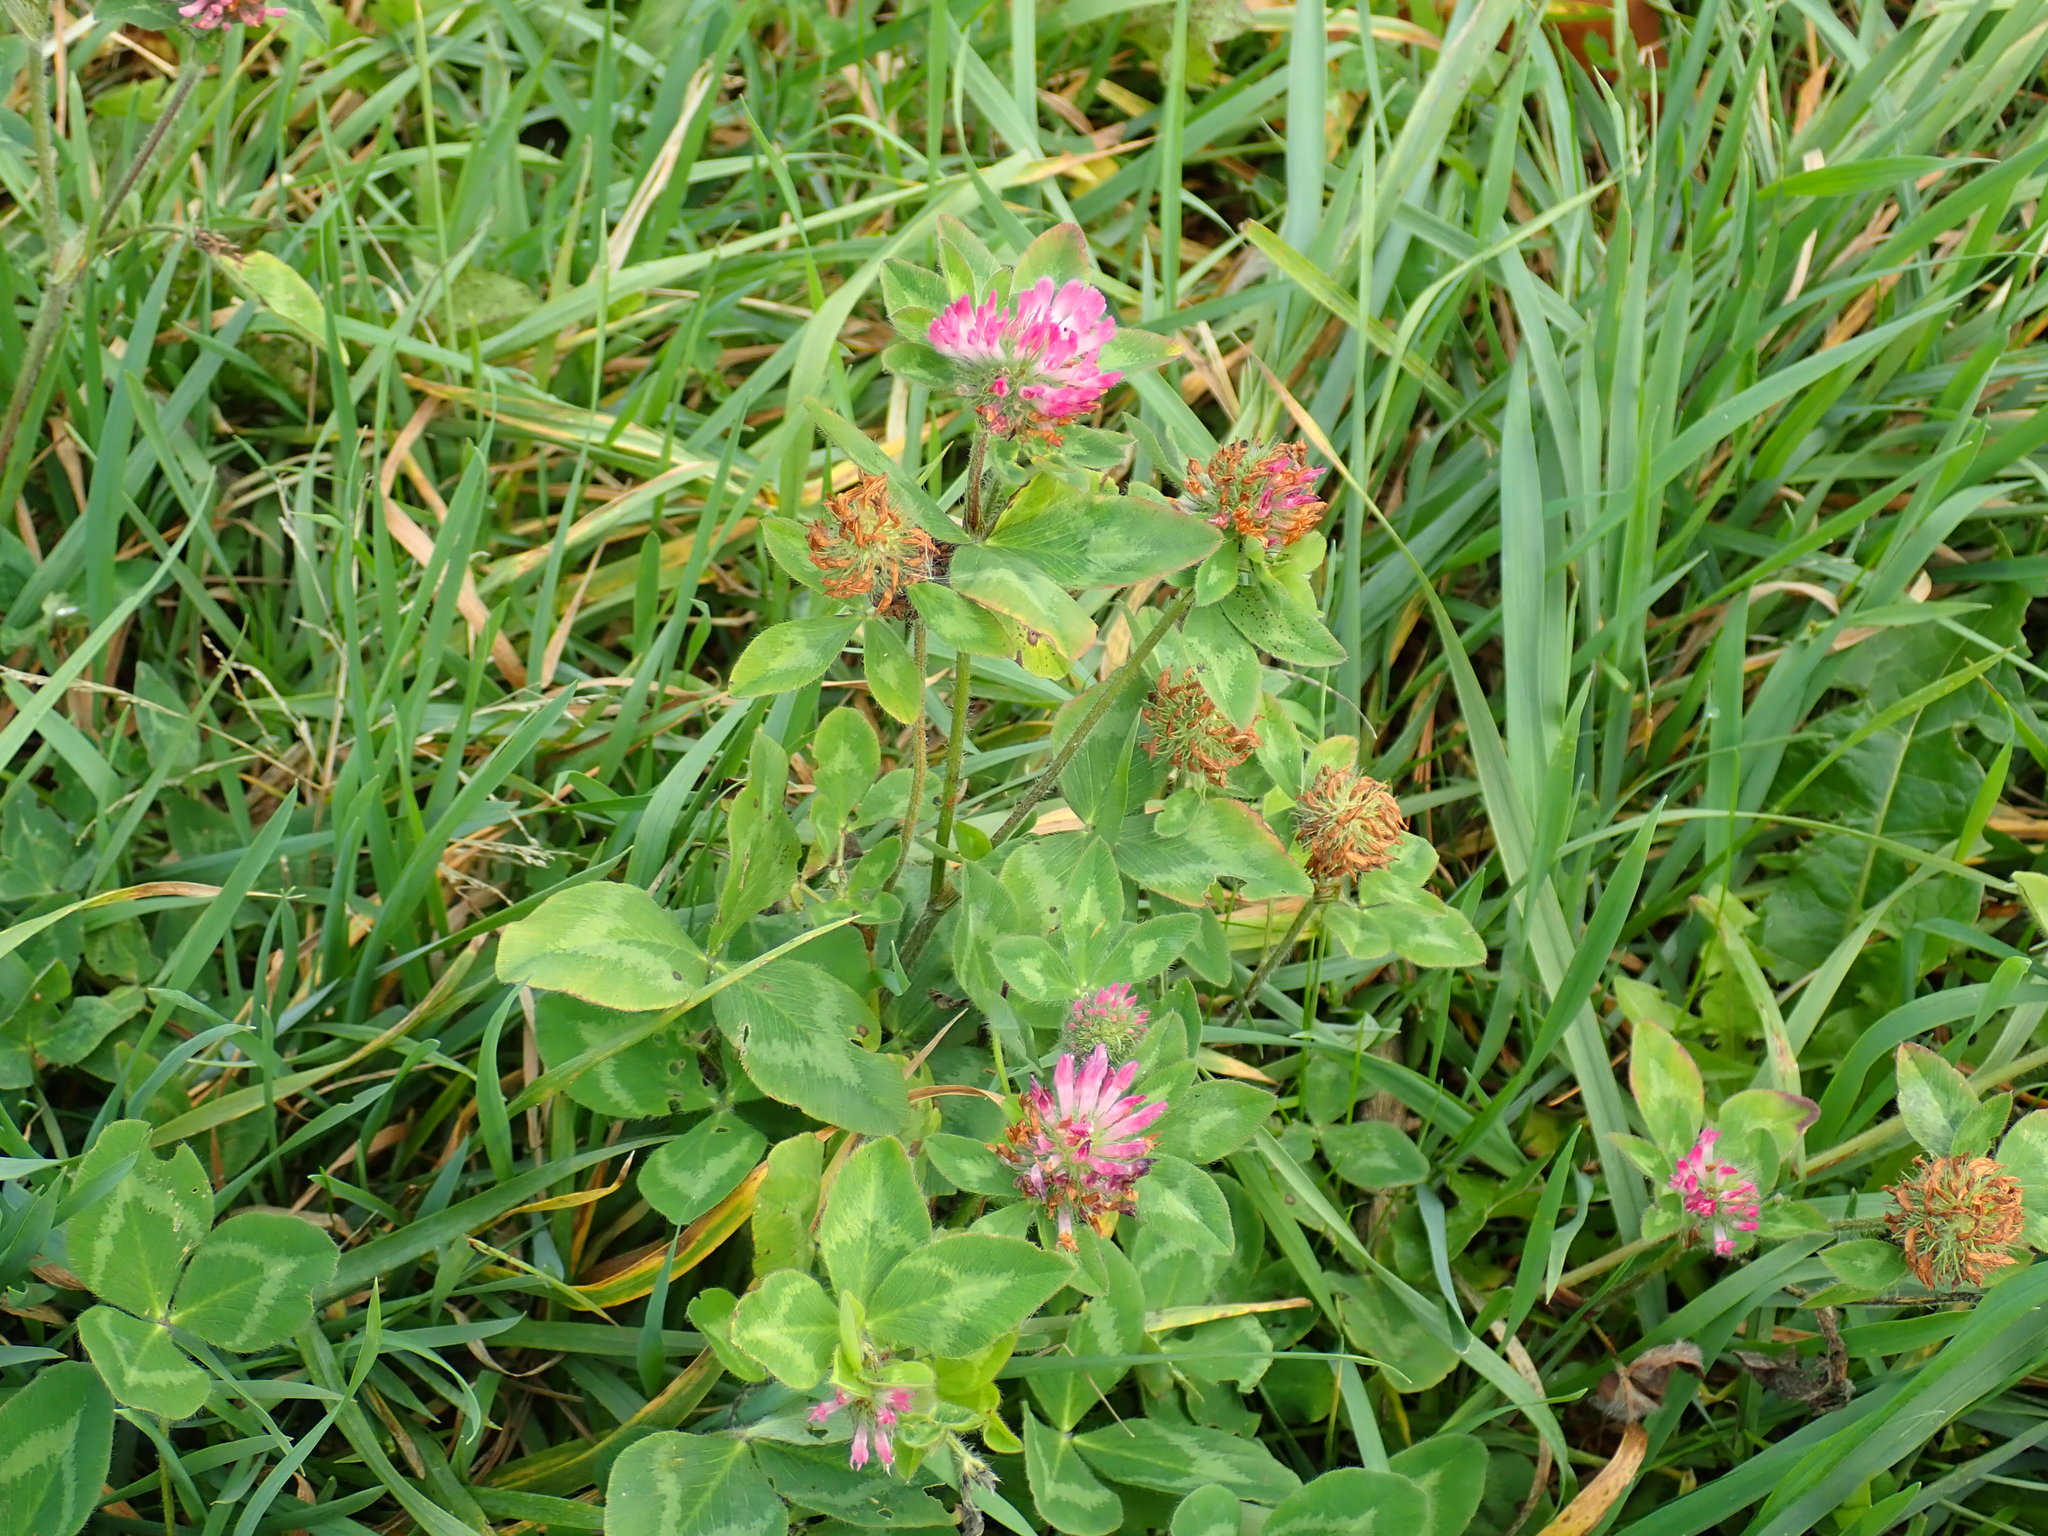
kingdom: Plantae
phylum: Tracheophyta
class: Magnoliopsida
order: Fabales
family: Fabaceae
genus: Trifolium
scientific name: Trifolium pratense
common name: Red clover
